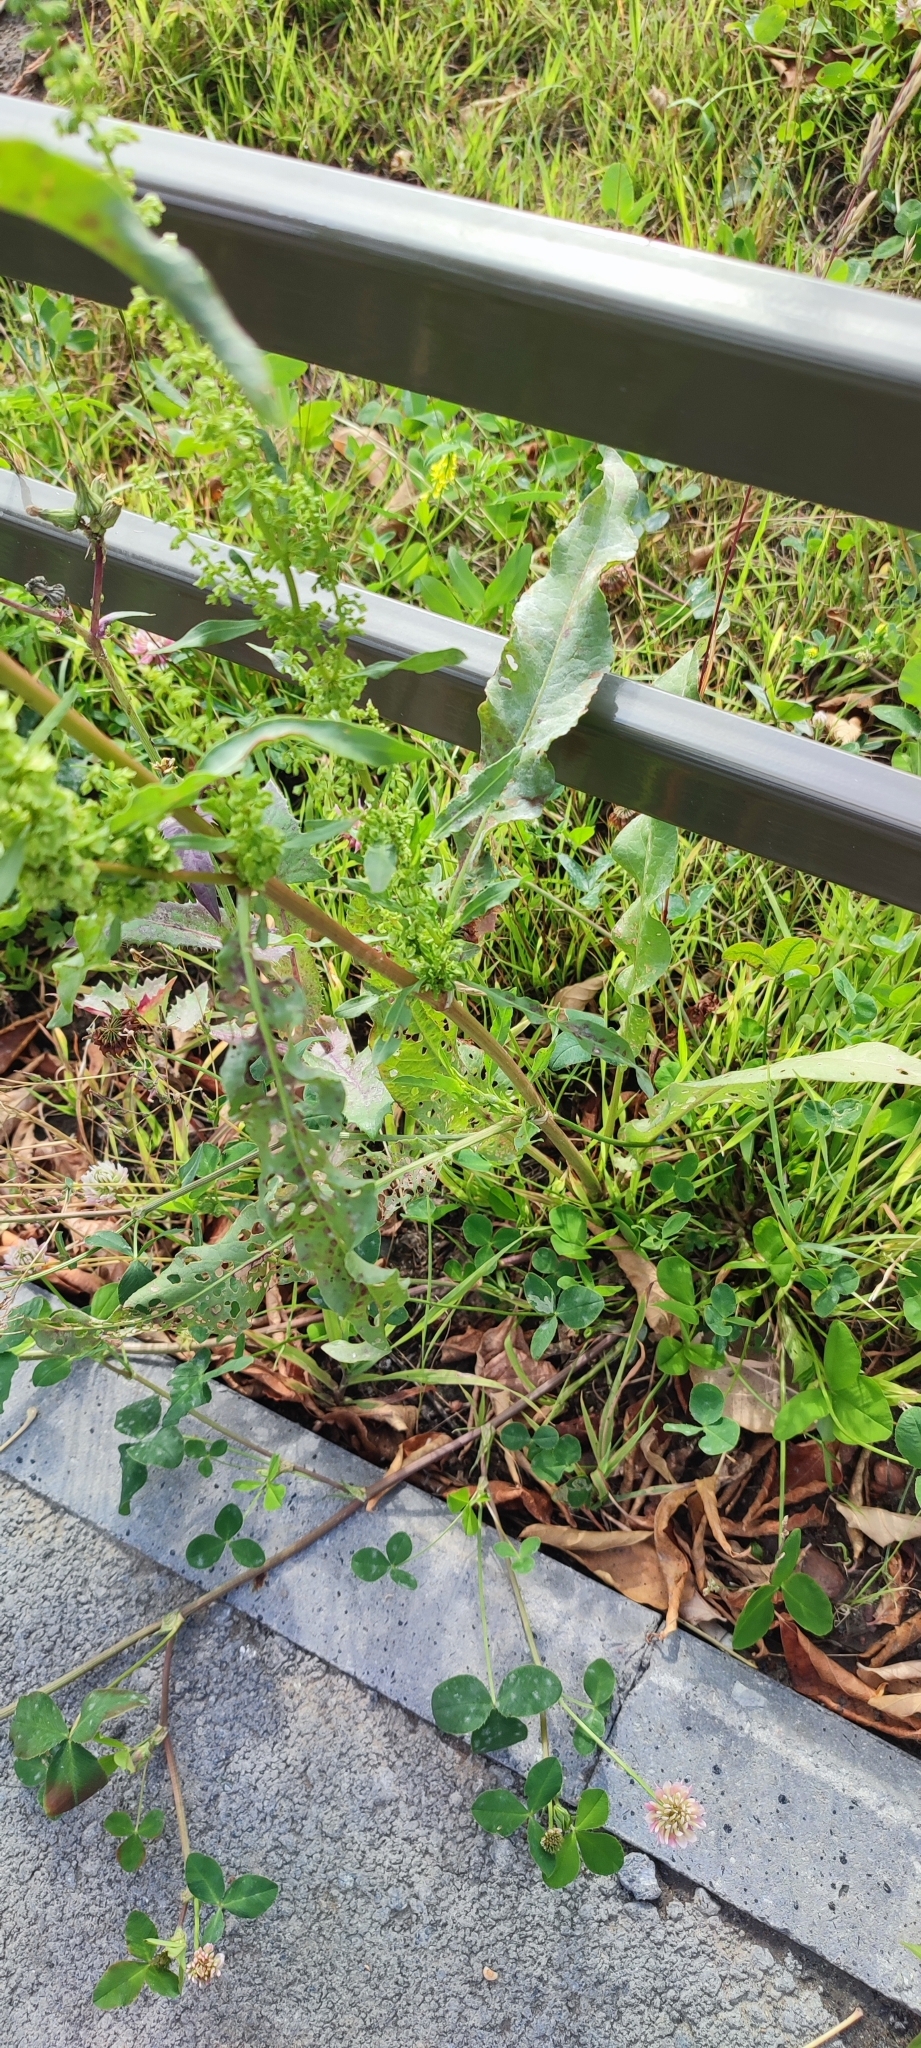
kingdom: Plantae
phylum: Tracheophyta
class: Magnoliopsida
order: Caryophyllales
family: Polygonaceae
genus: Rumex
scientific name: Rumex stenophyllus
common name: Narrowleaf dock
